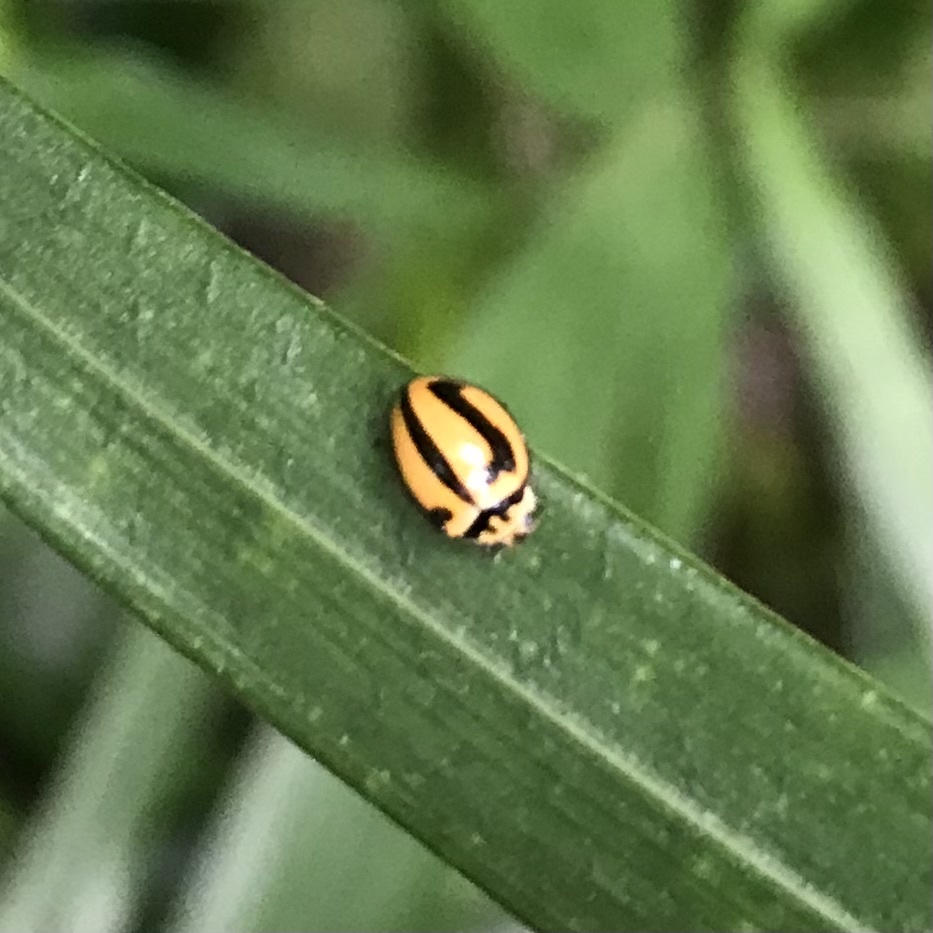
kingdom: Animalia
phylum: Arthropoda
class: Insecta
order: Coleoptera
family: Coccinellidae
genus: Micraspis
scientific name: Micraspis frenata
